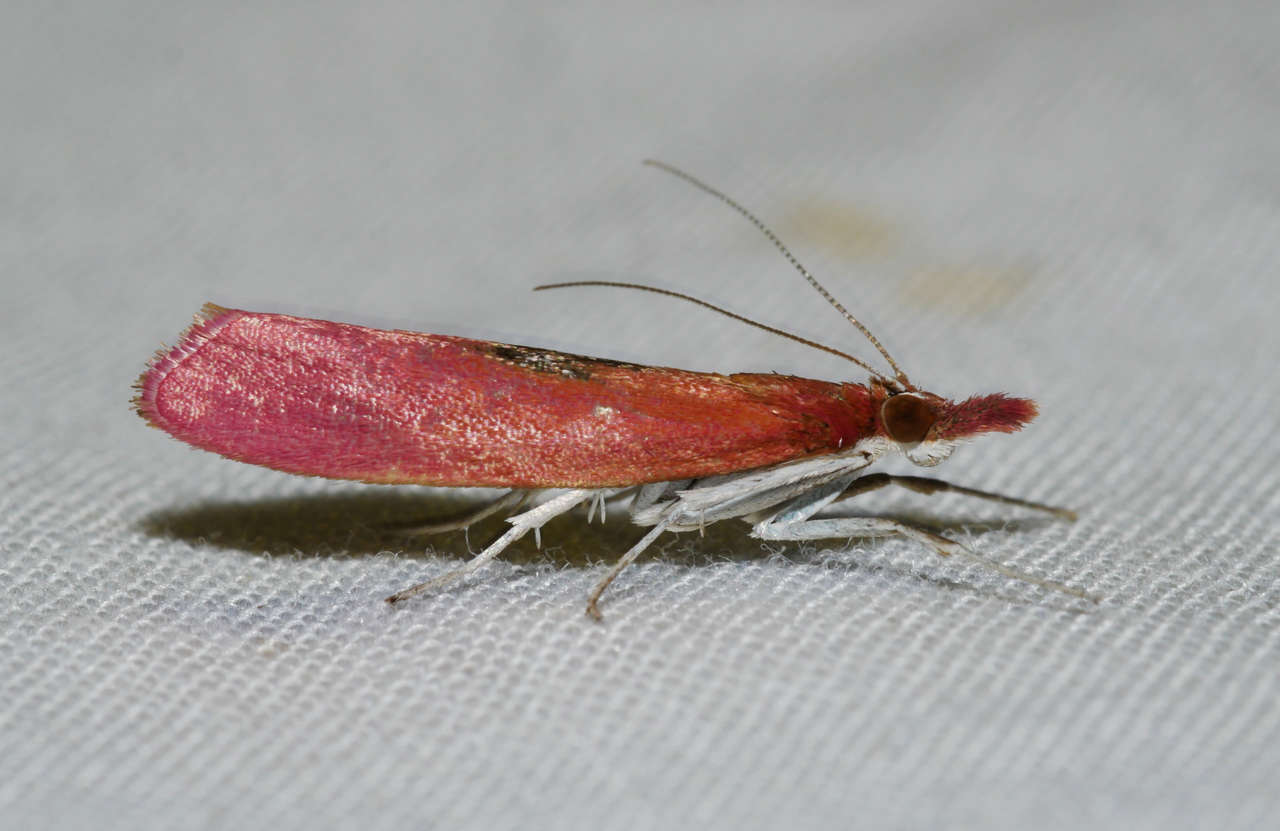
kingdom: Animalia
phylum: Arthropoda
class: Insecta
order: Lepidoptera
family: Crambidae
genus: Canuza
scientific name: Canuza euspilella
